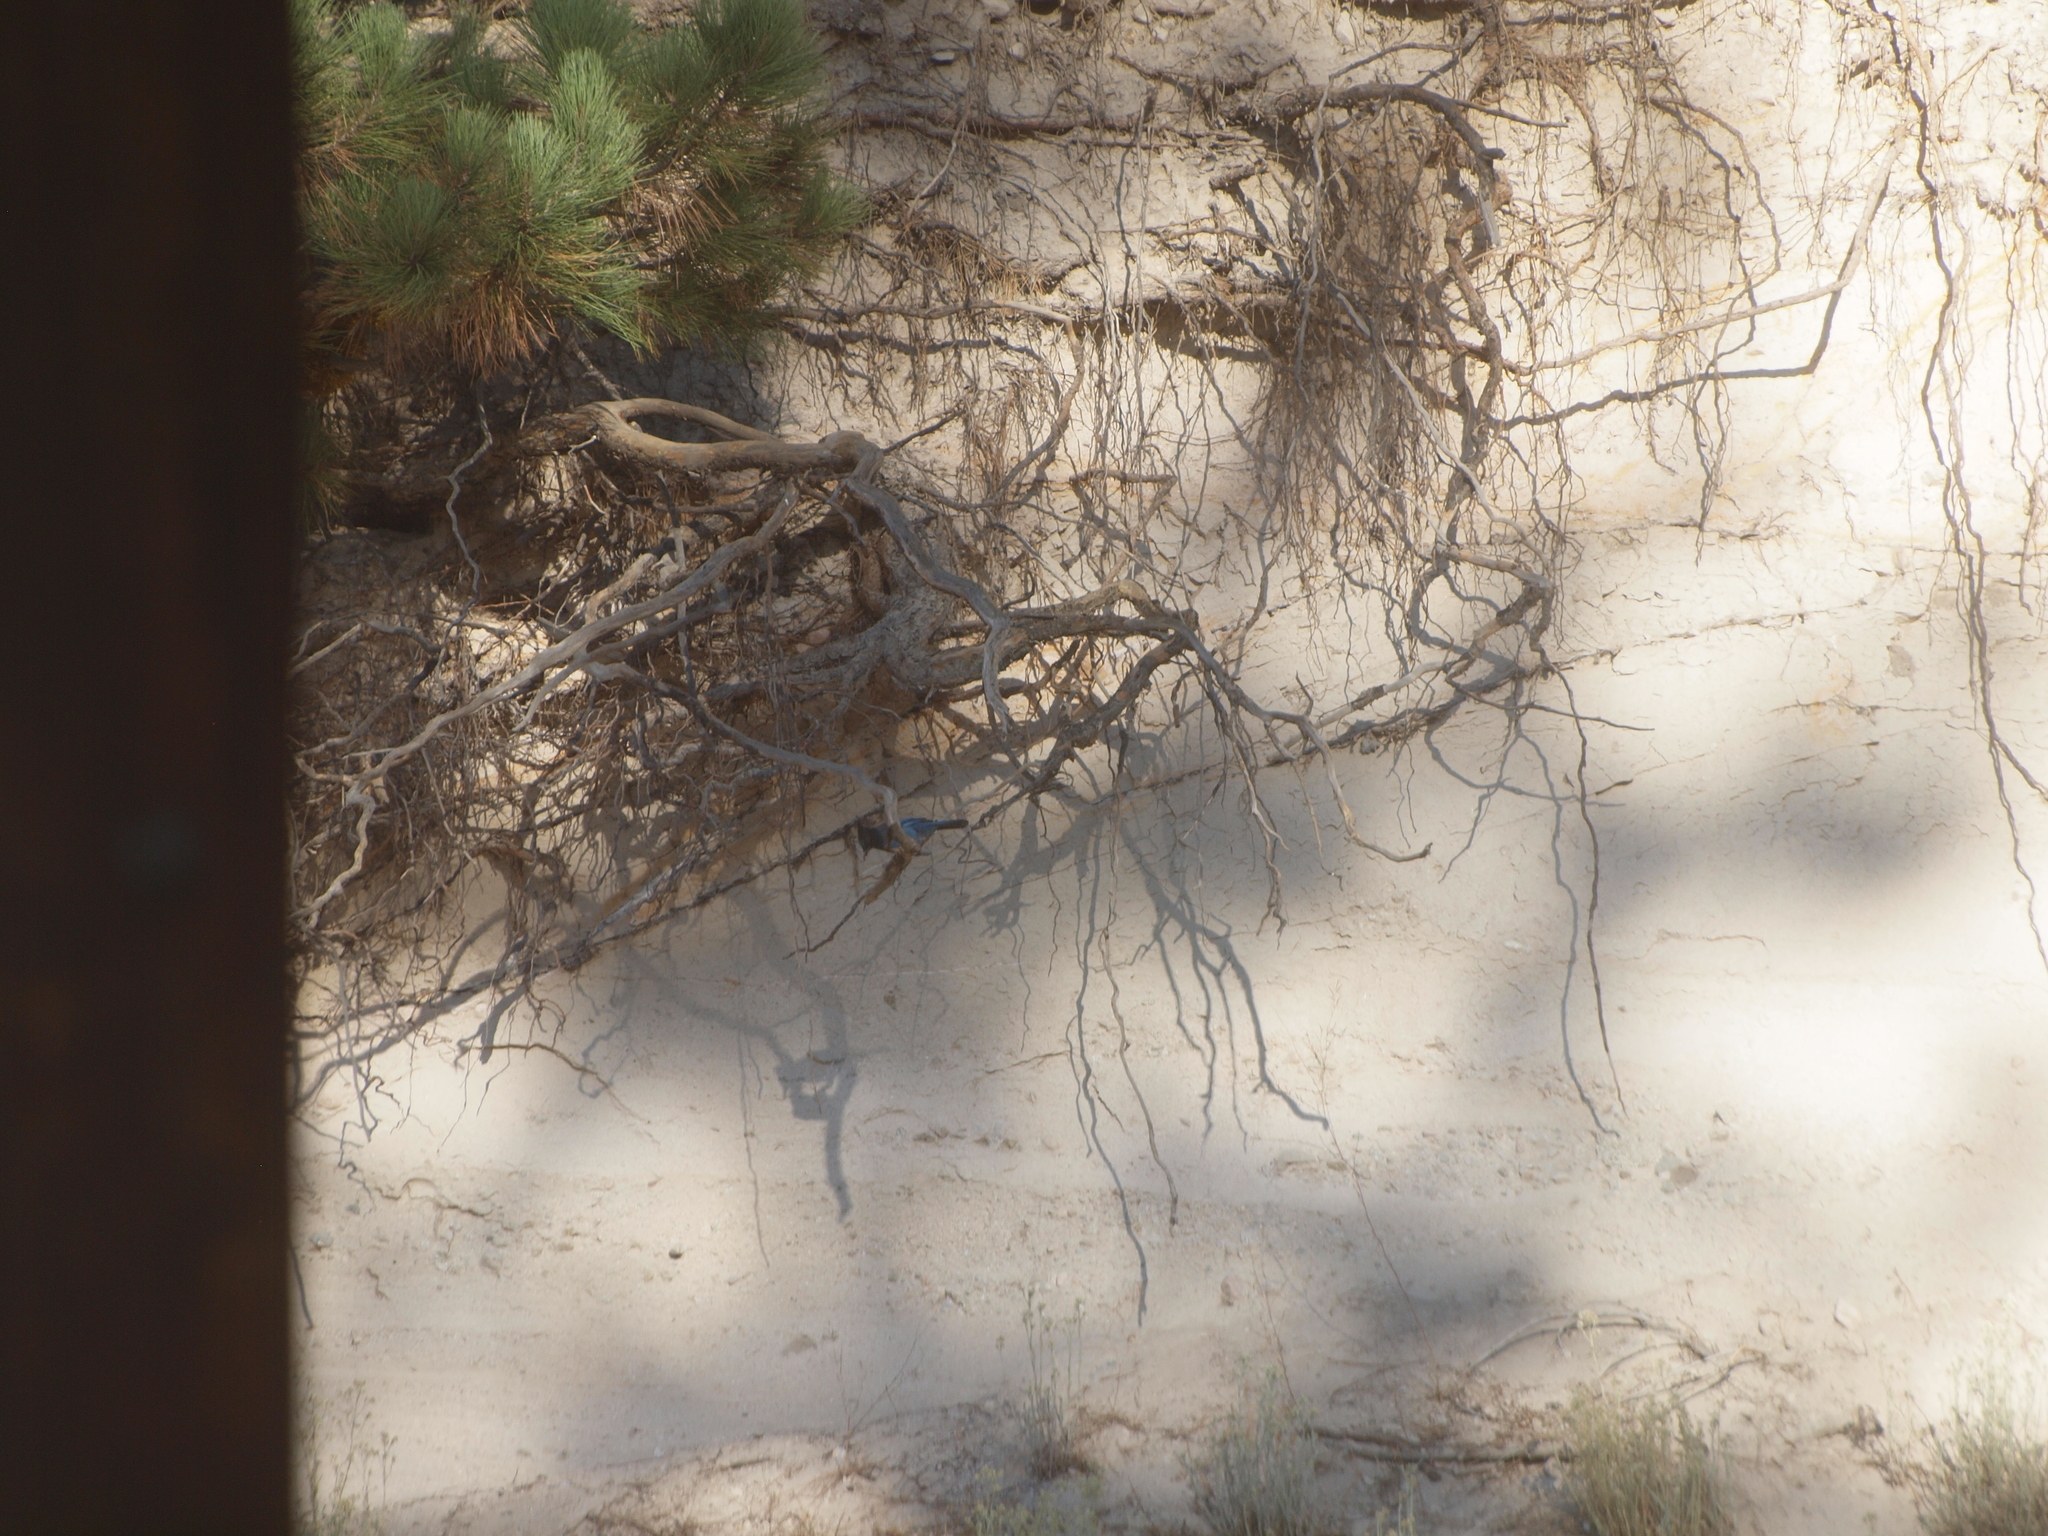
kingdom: Animalia
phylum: Chordata
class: Aves
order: Passeriformes
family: Corvidae
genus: Cyanocitta
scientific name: Cyanocitta stelleri
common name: Steller's jay
